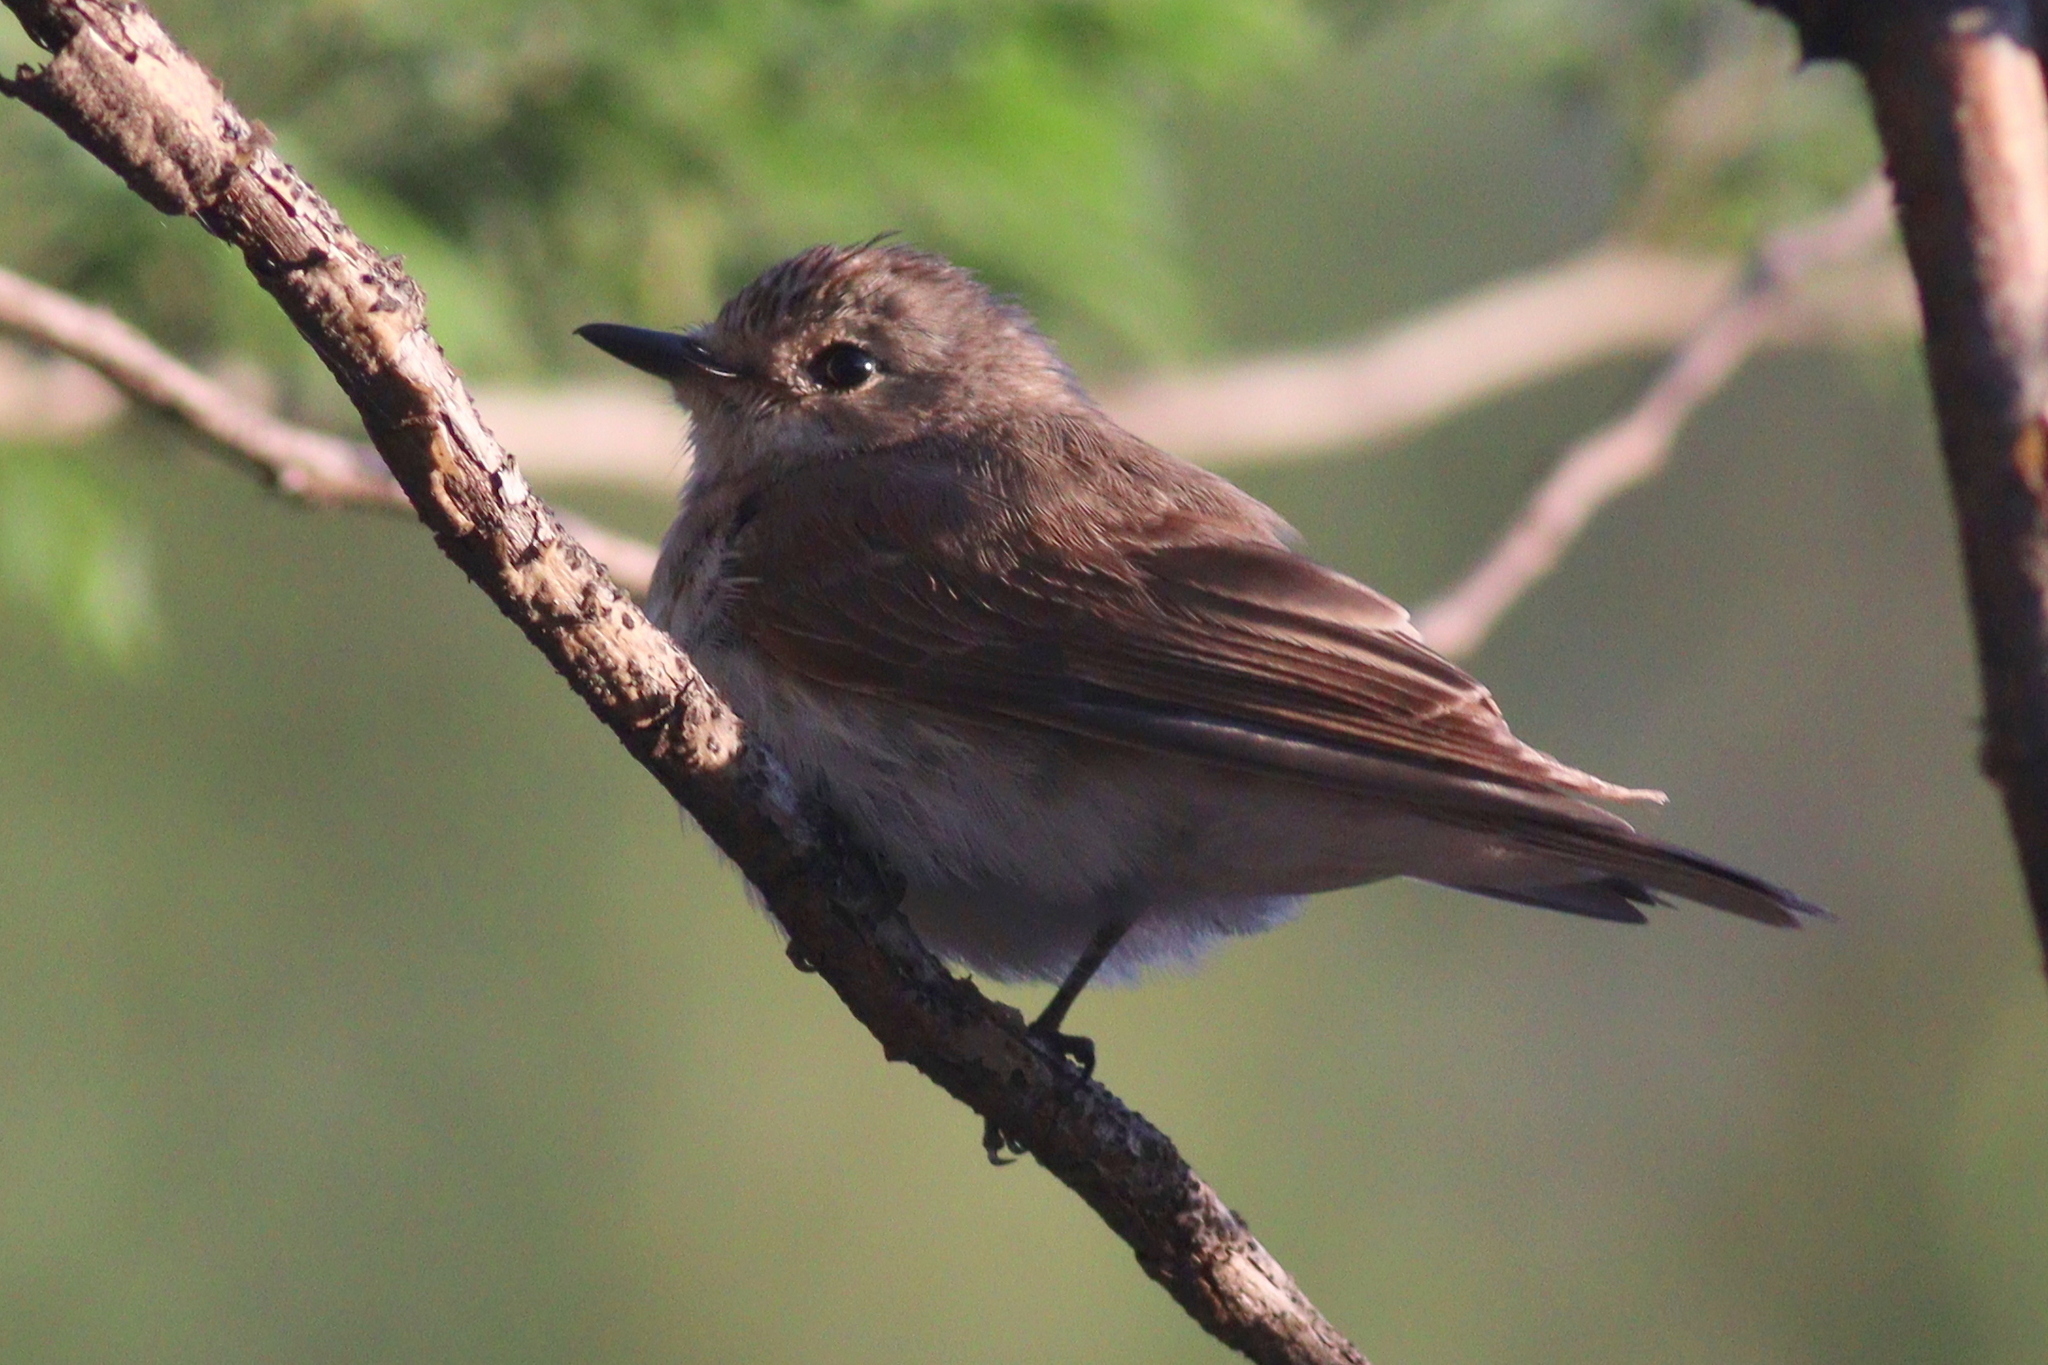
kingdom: Animalia
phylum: Chordata
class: Aves
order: Passeriformes
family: Muscicapidae
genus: Muscicapa
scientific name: Muscicapa striata
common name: Spotted flycatcher
